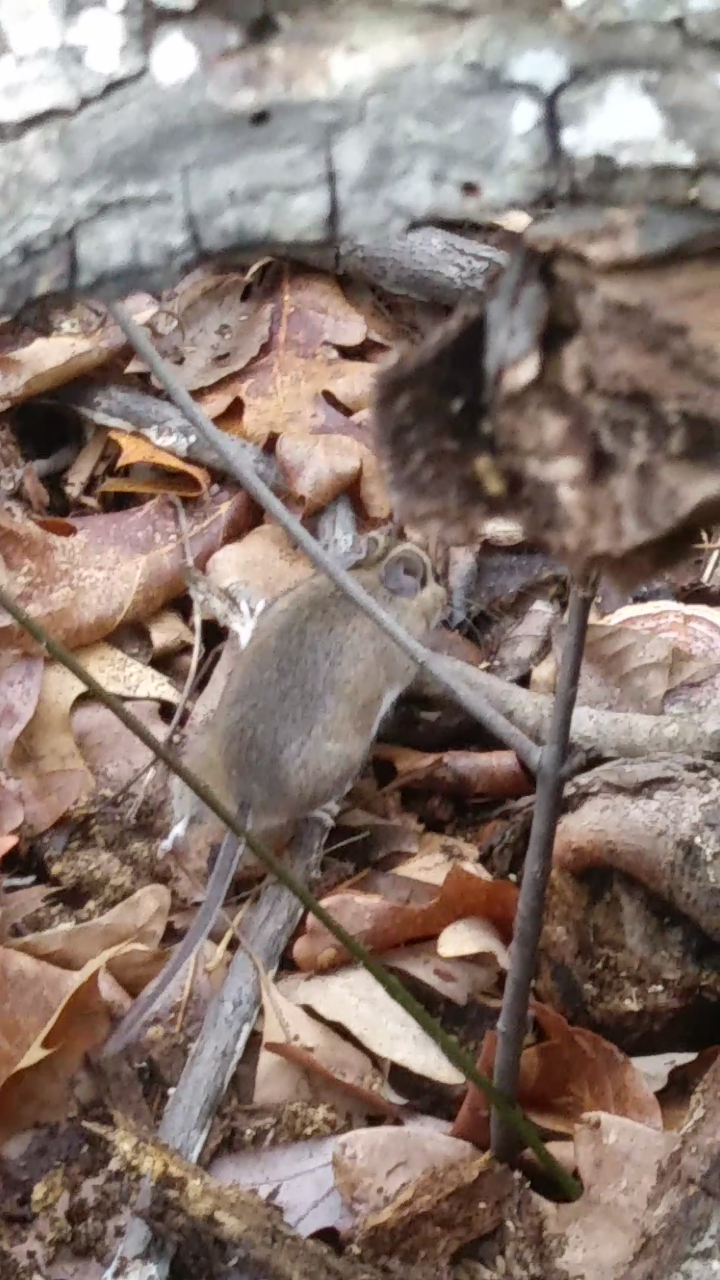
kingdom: Animalia
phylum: Chordata
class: Mammalia
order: Rodentia
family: Cricetidae
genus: Peromyscus
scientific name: Peromyscus maniculatus
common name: Deer mouse
